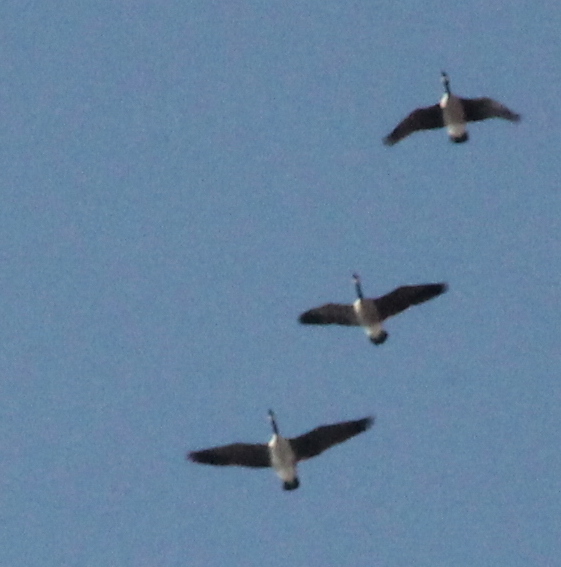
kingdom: Animalia
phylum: Chordata
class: Aves
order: Anseriformes
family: Anatidae
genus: Branta
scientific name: Branta canadensis
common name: Canada goose
